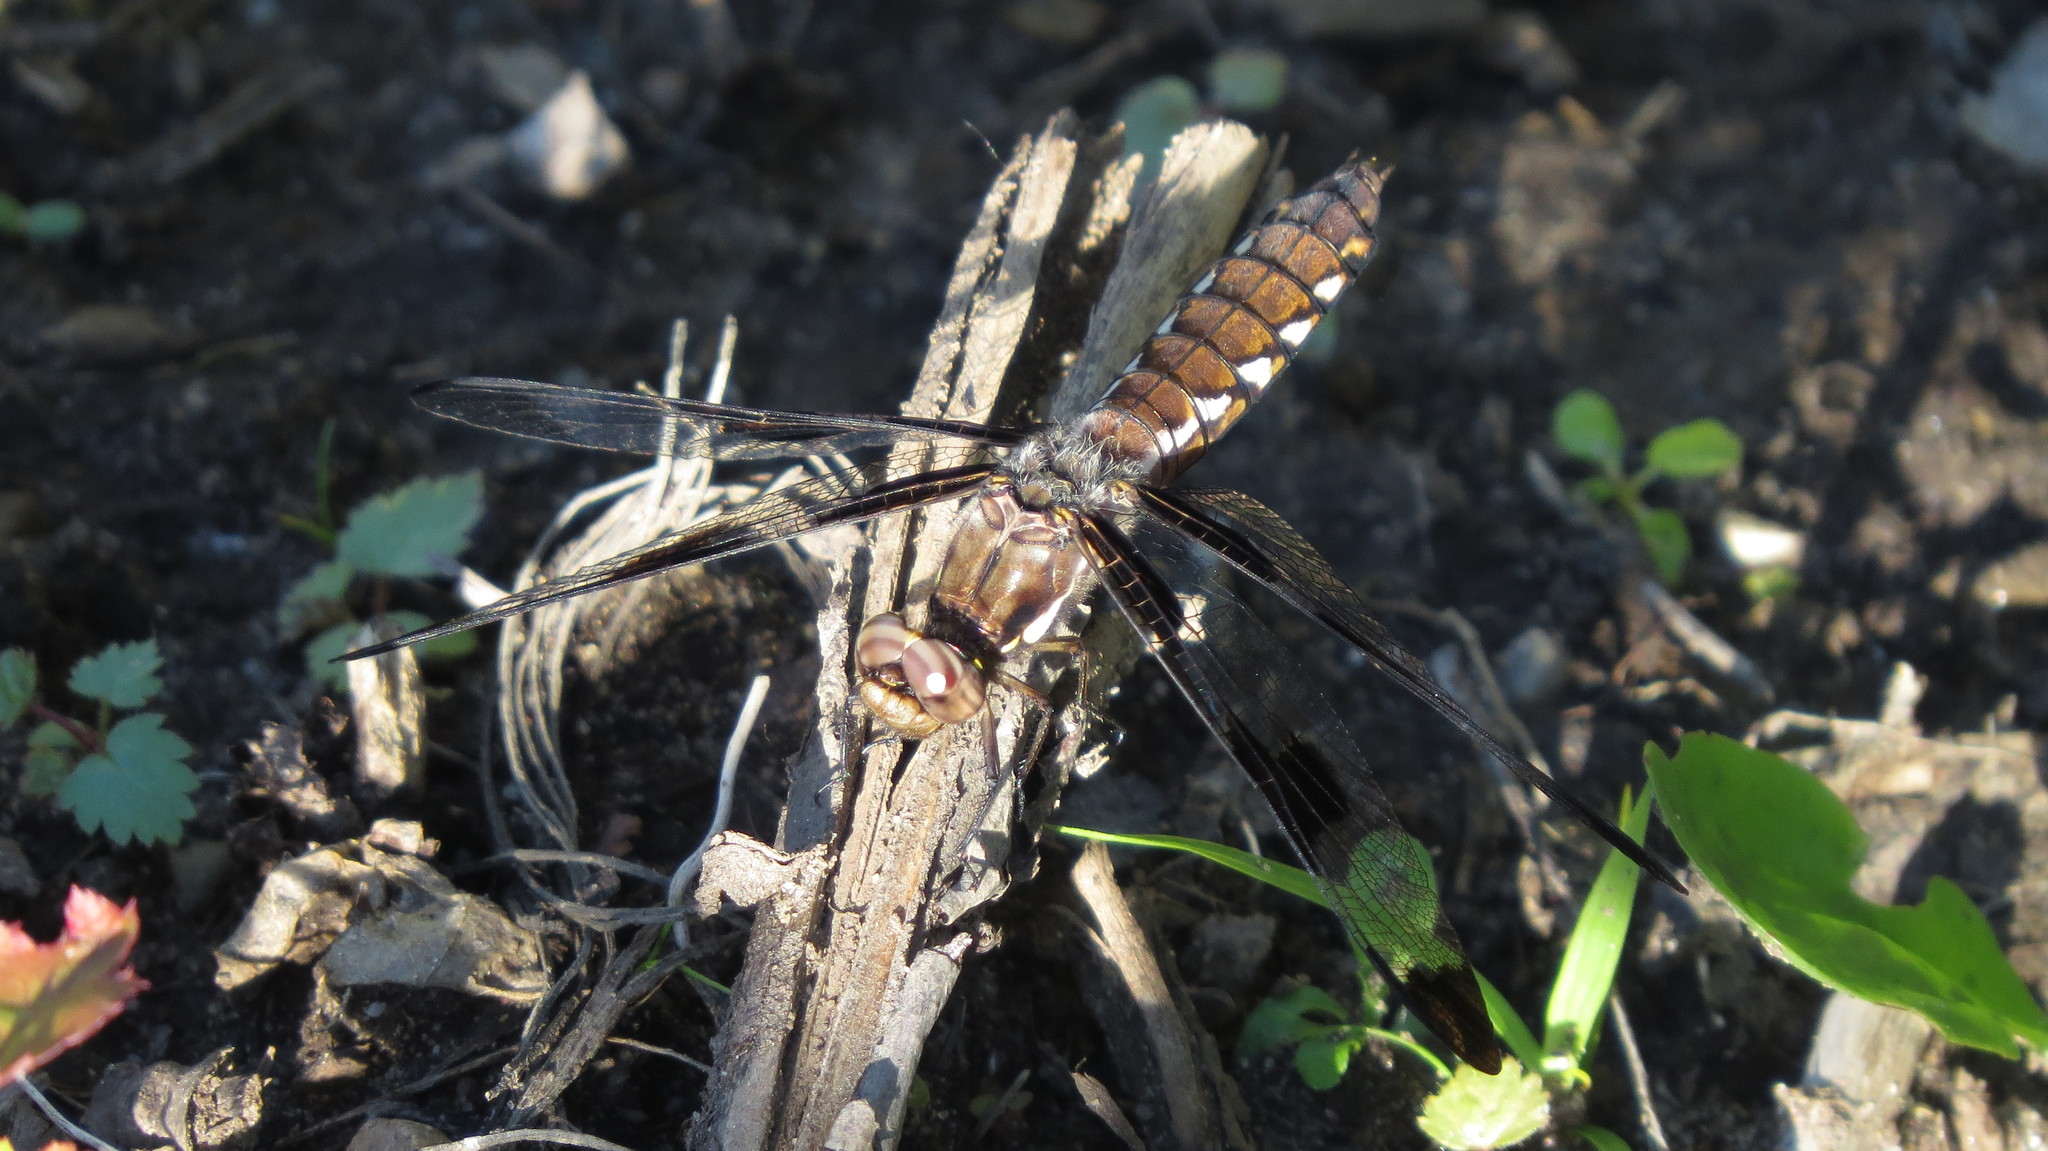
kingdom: Animalia
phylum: Arthropoda
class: Insecta
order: Odonata
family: Libellulidae
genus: Plathemis
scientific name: Plathemis lydia
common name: Common whitetail
